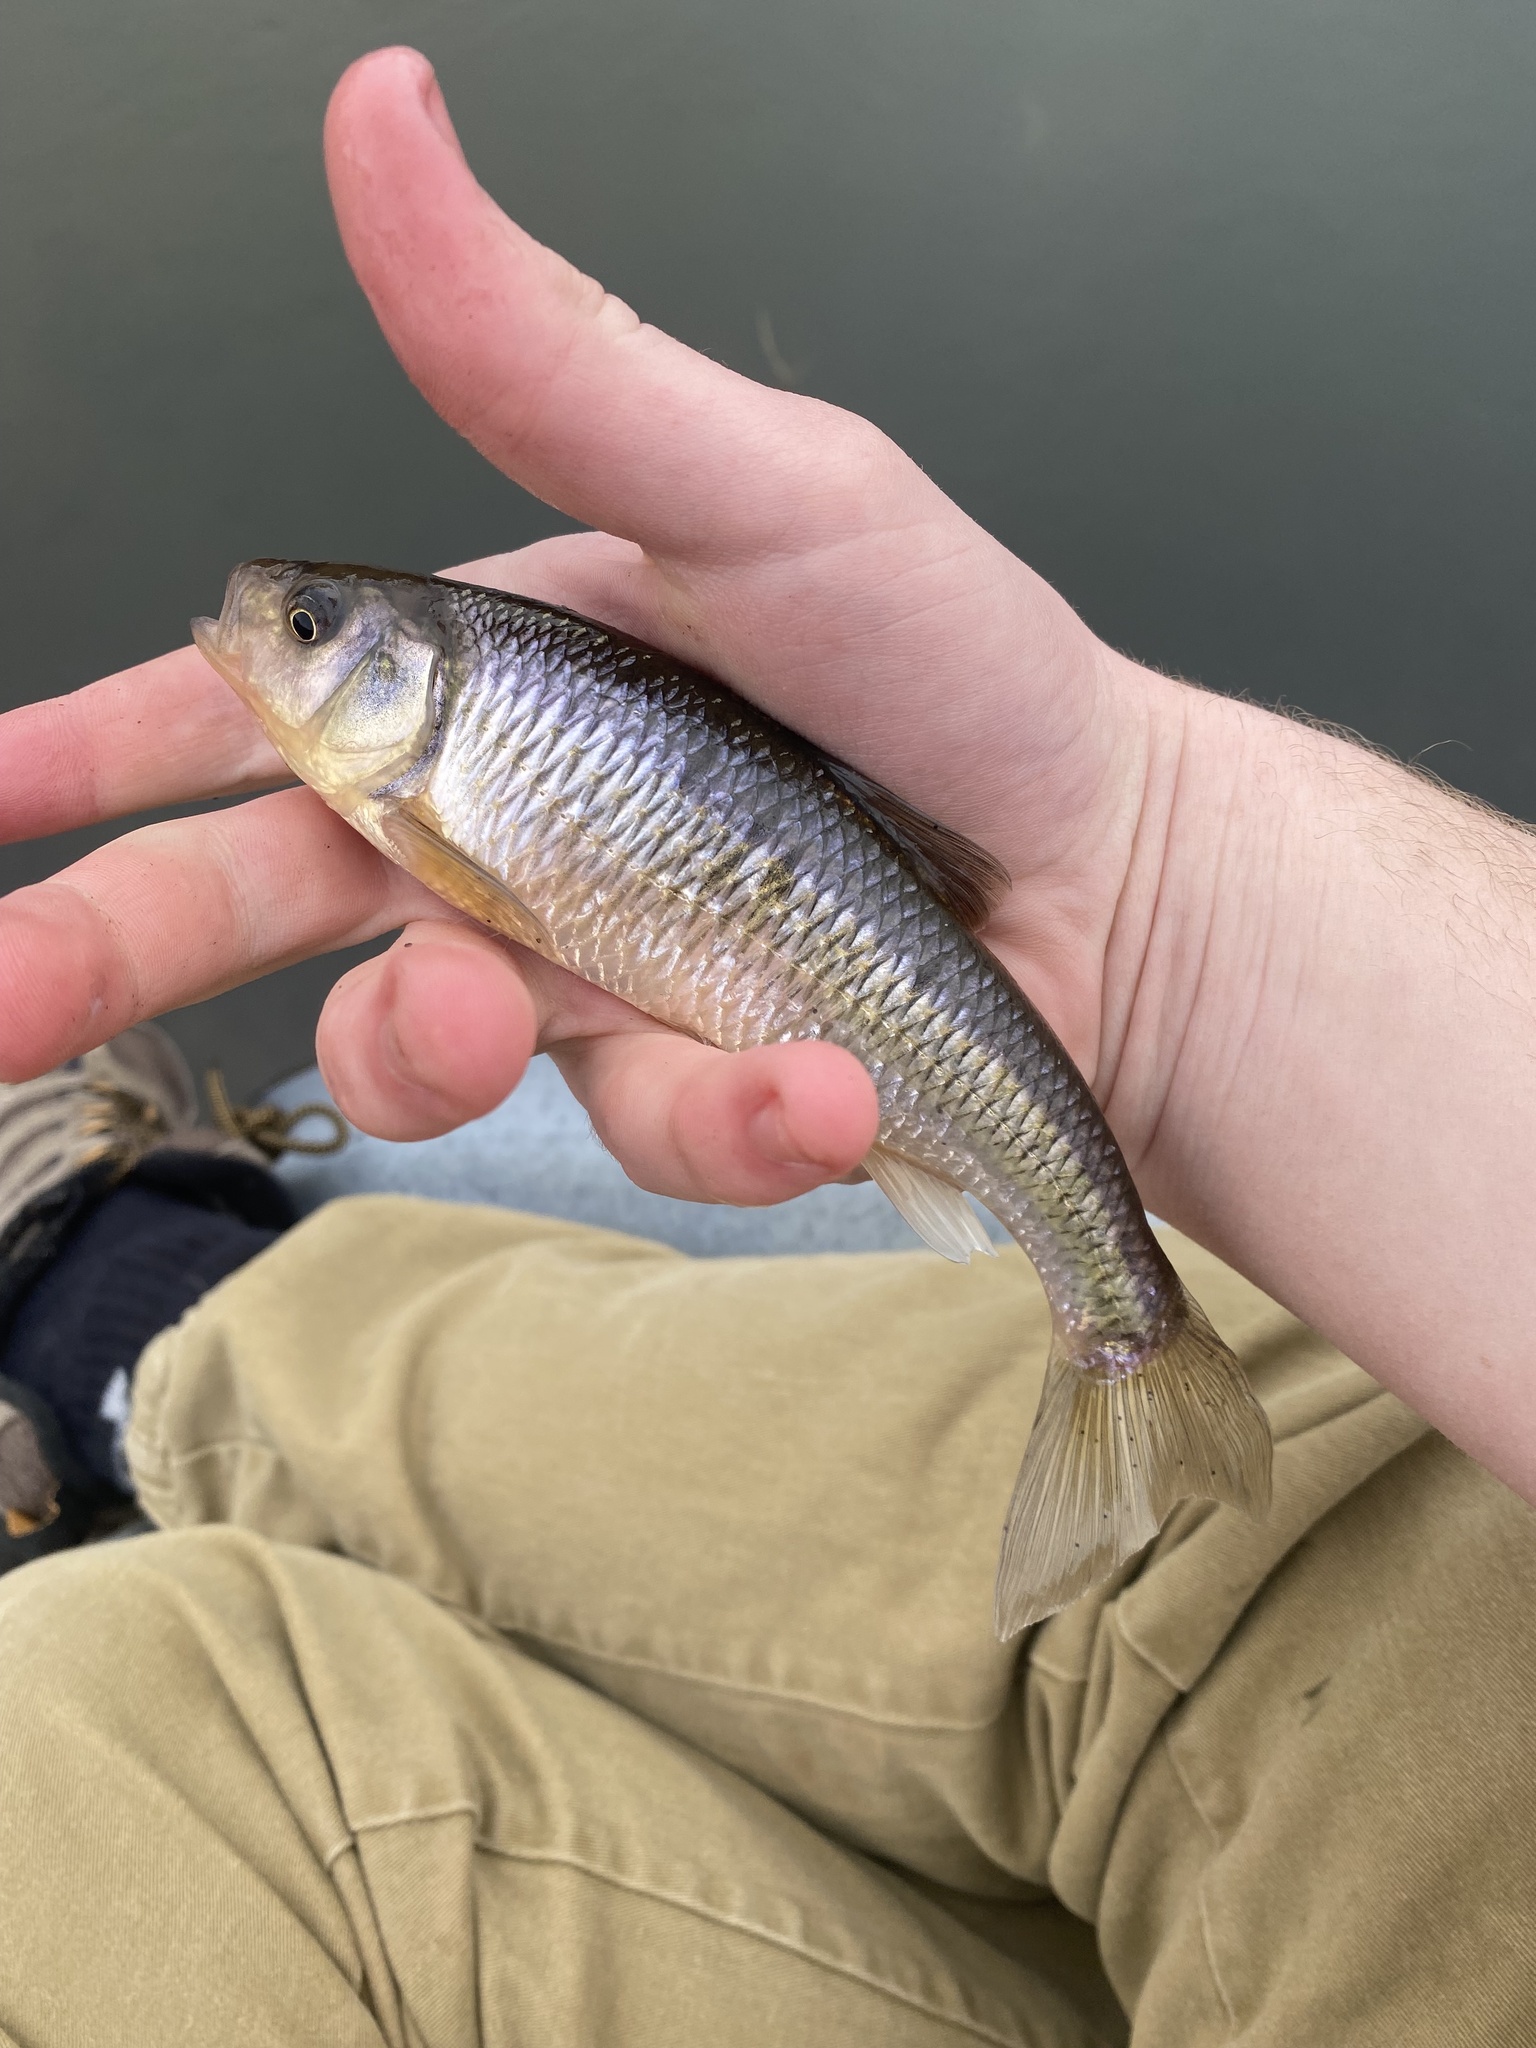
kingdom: Animalia
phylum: Chordata
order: Cypriniformes
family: Cyprinidae
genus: Luxilus
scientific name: Luxilus cornutus
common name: Common shiner
